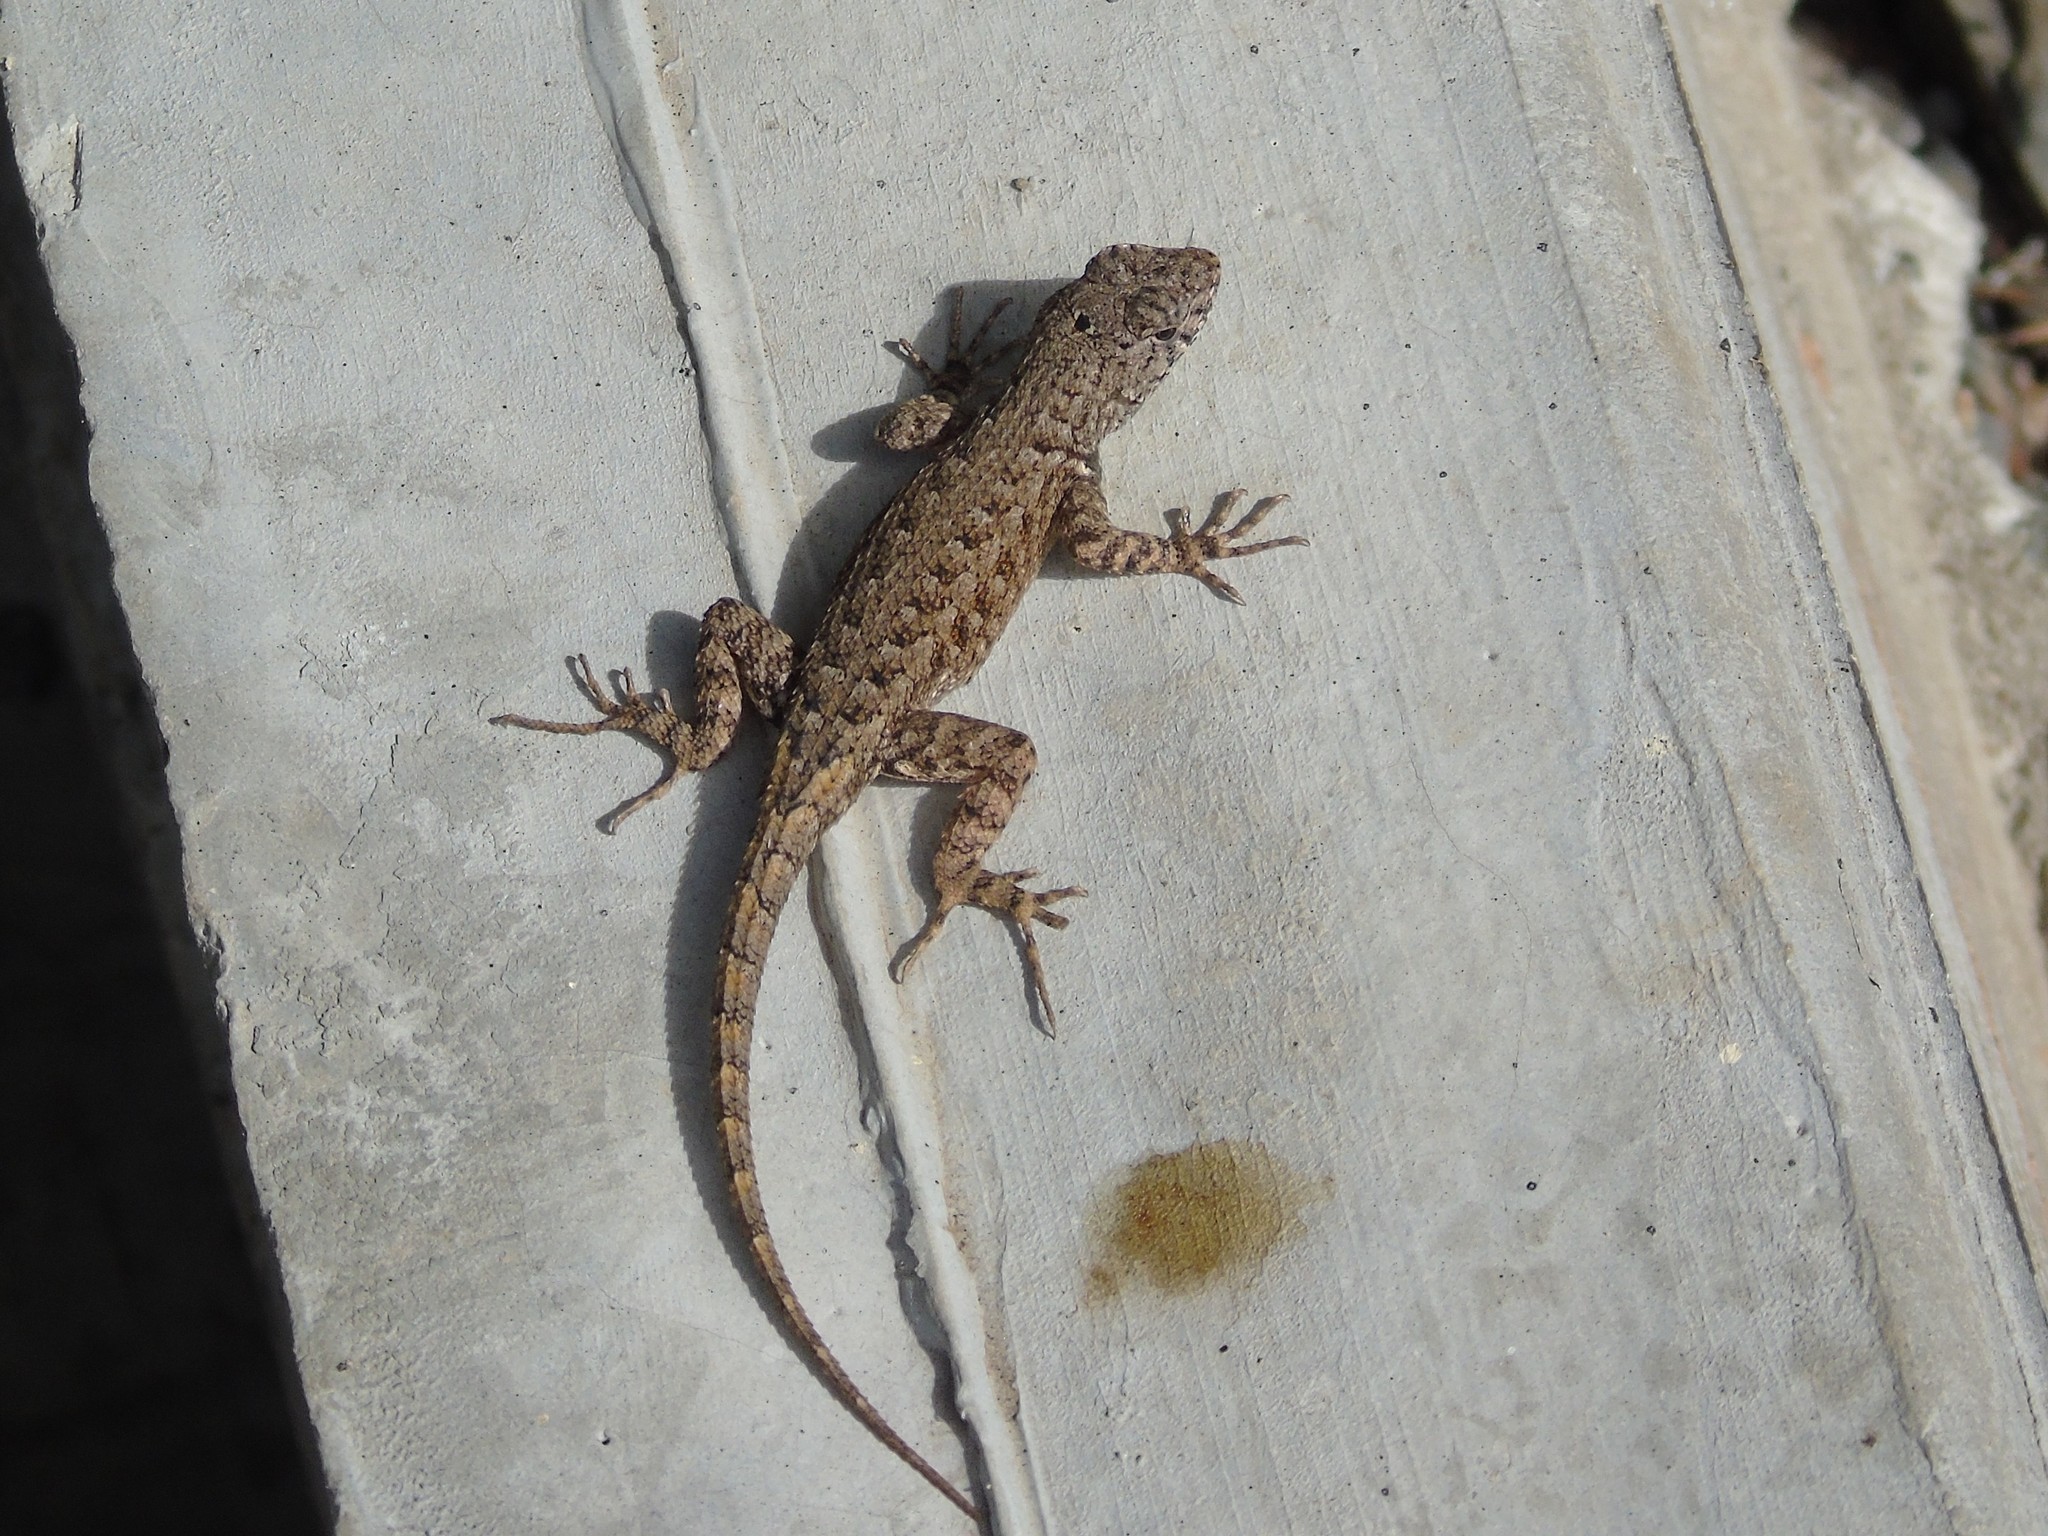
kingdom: Animalia
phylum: Chordata
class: Squamata
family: Phrynosomatidae
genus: Sceloporus
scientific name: Sceloporus nelsoni
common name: Nelson's spiny lizard
